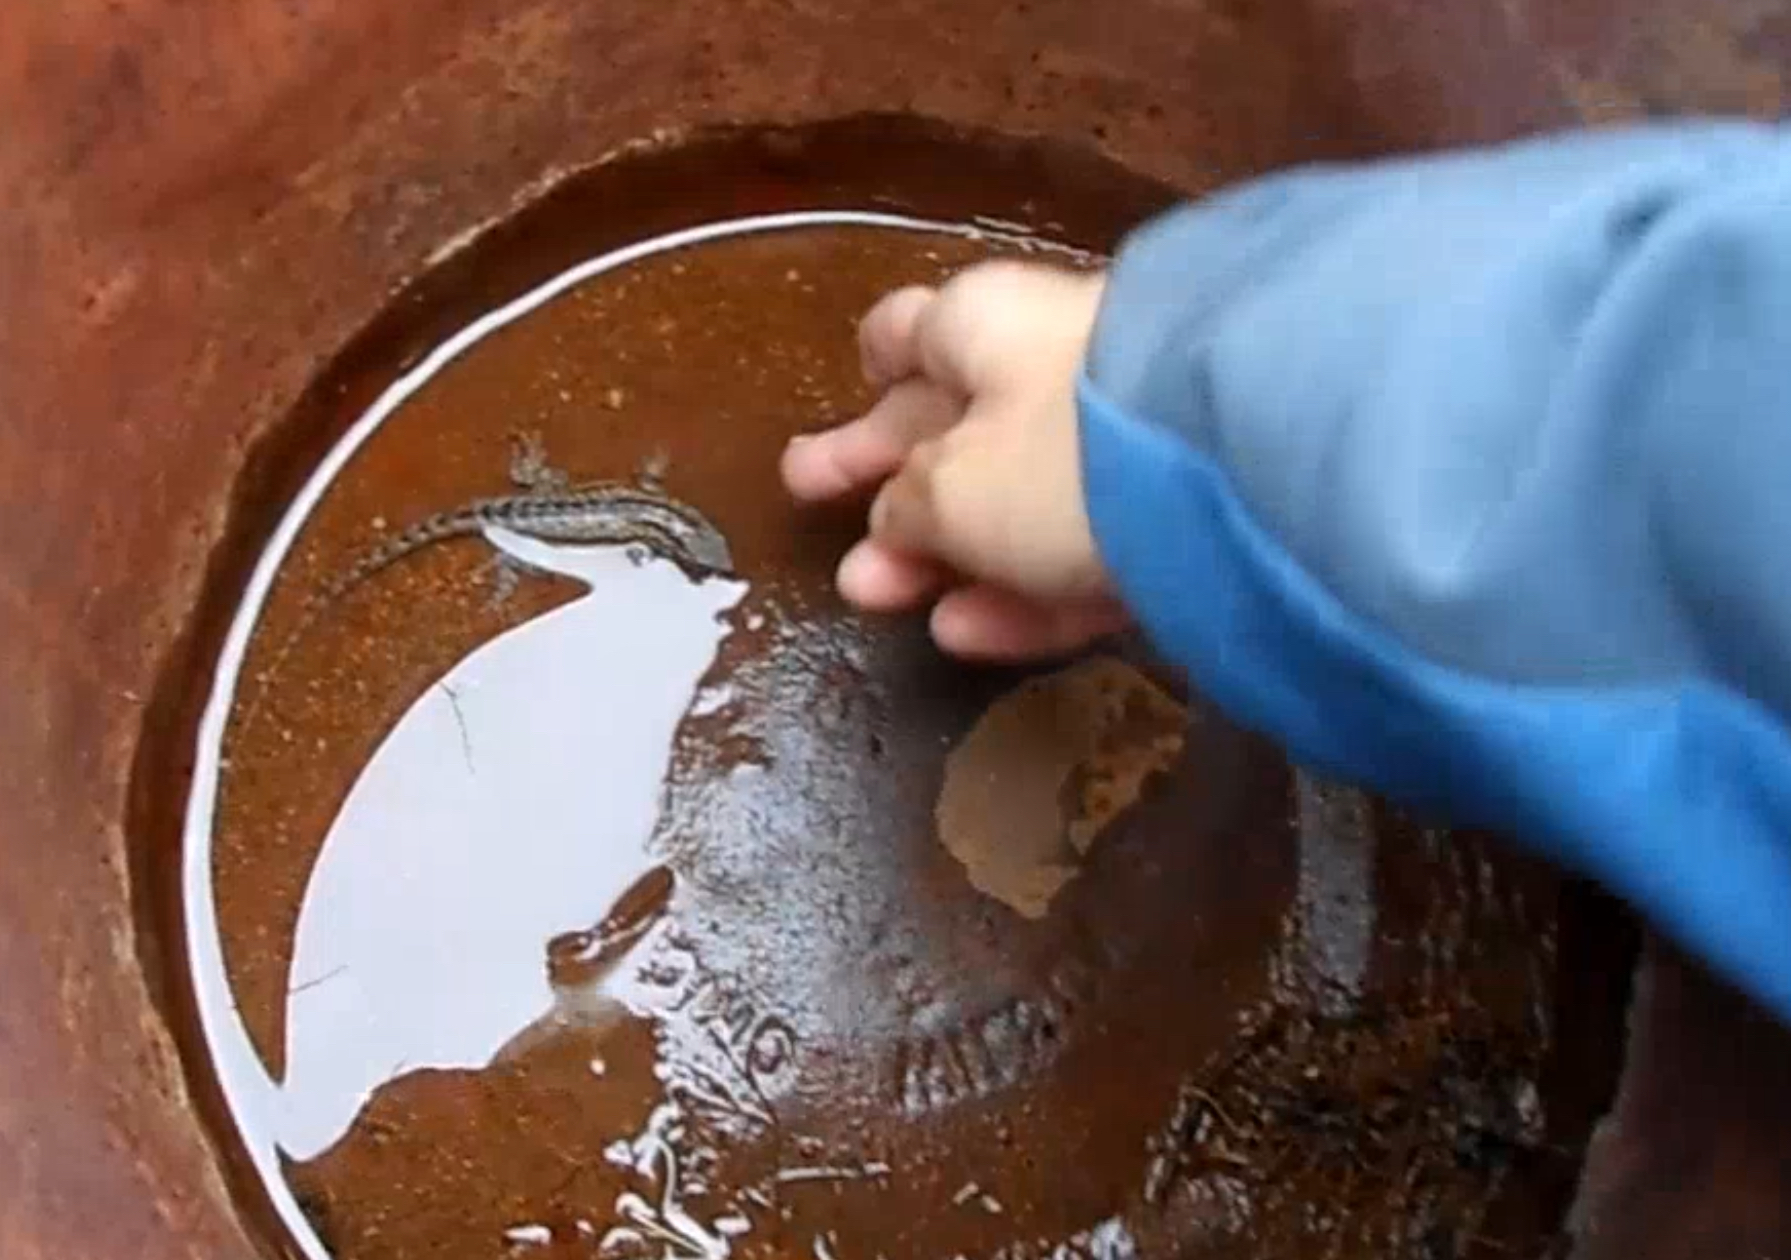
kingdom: Animalia
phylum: Chordata
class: Squamata
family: Phrynosomatidae
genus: Uta
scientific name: Uta stansburiana
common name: Side-blotched lizard
